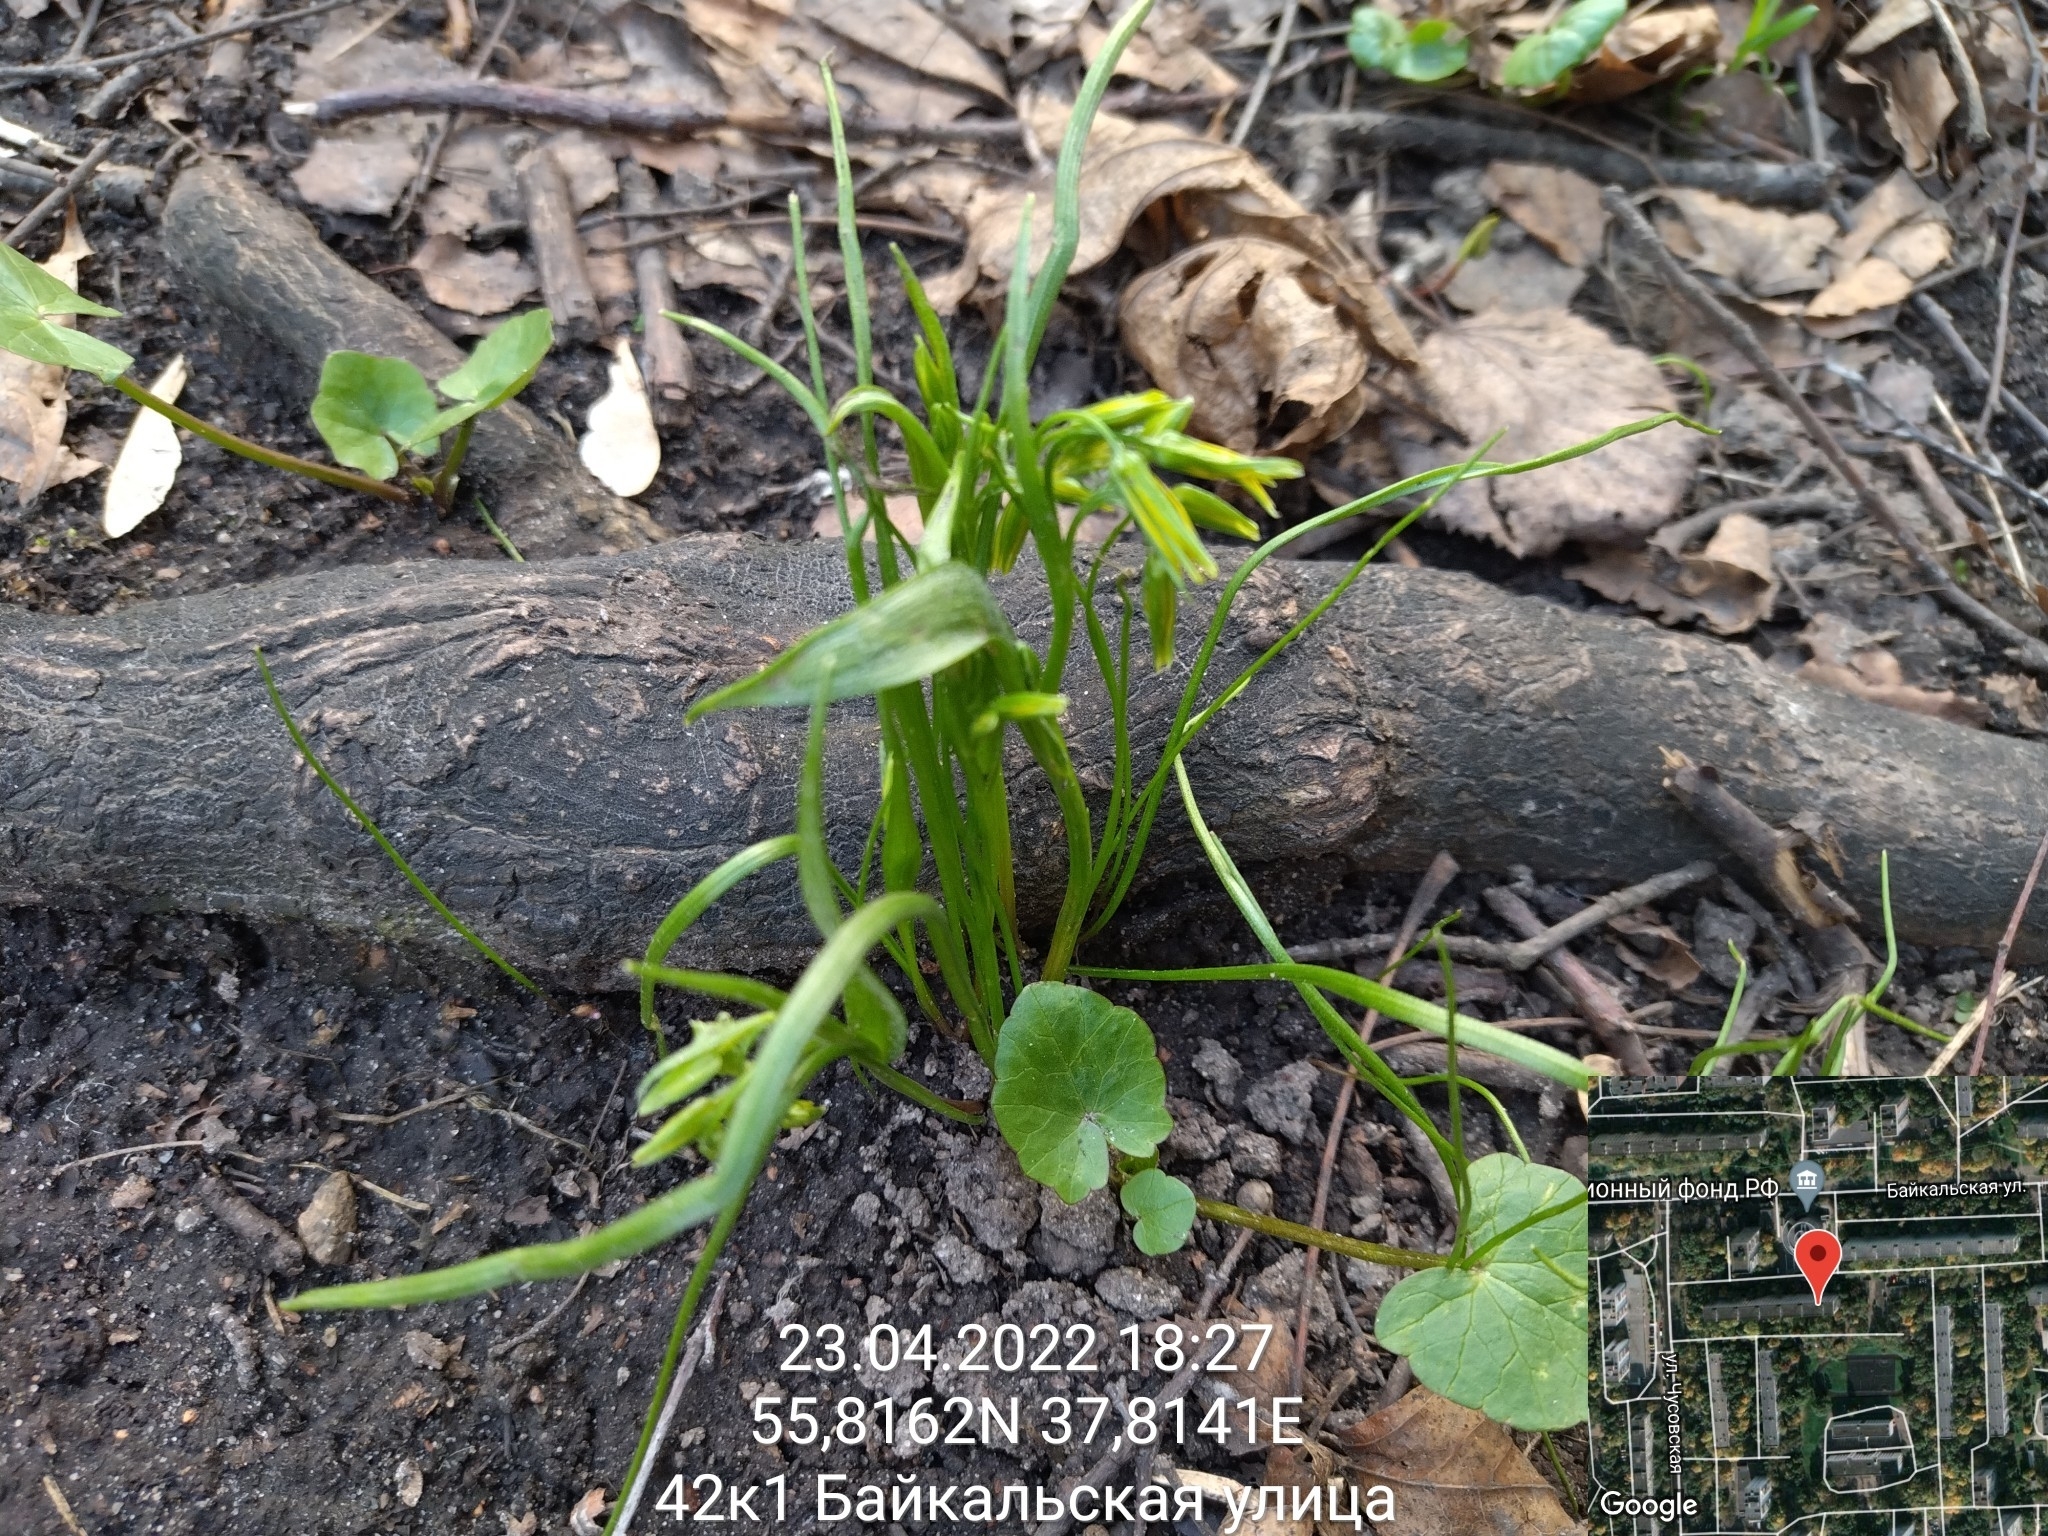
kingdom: Plantae
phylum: Tracheophyta
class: Liliopsida
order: Liliales
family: Liliaceae
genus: Gagea
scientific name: Gagea minima
